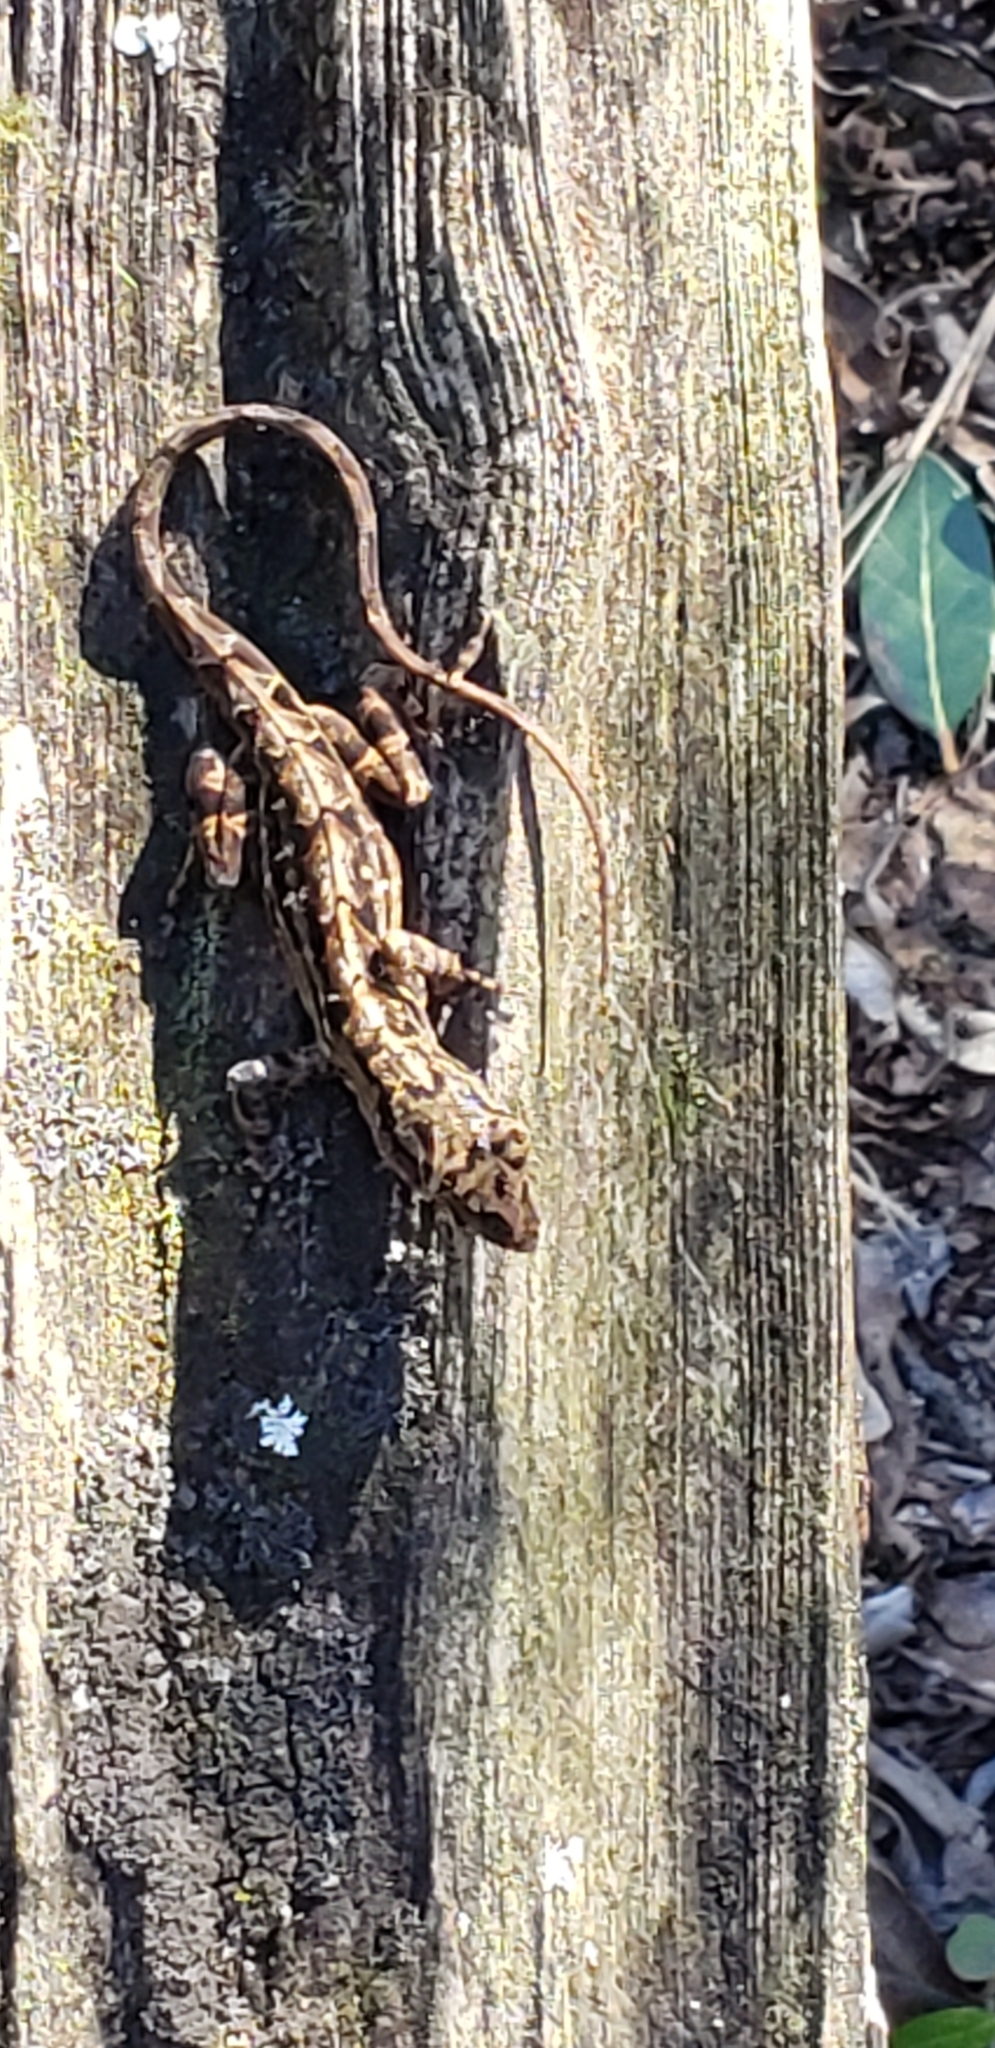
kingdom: Animalia
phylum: Chordata
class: Squamata
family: Dactyloidae
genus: Anolis
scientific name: Anolis sagrei
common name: Brown anole
